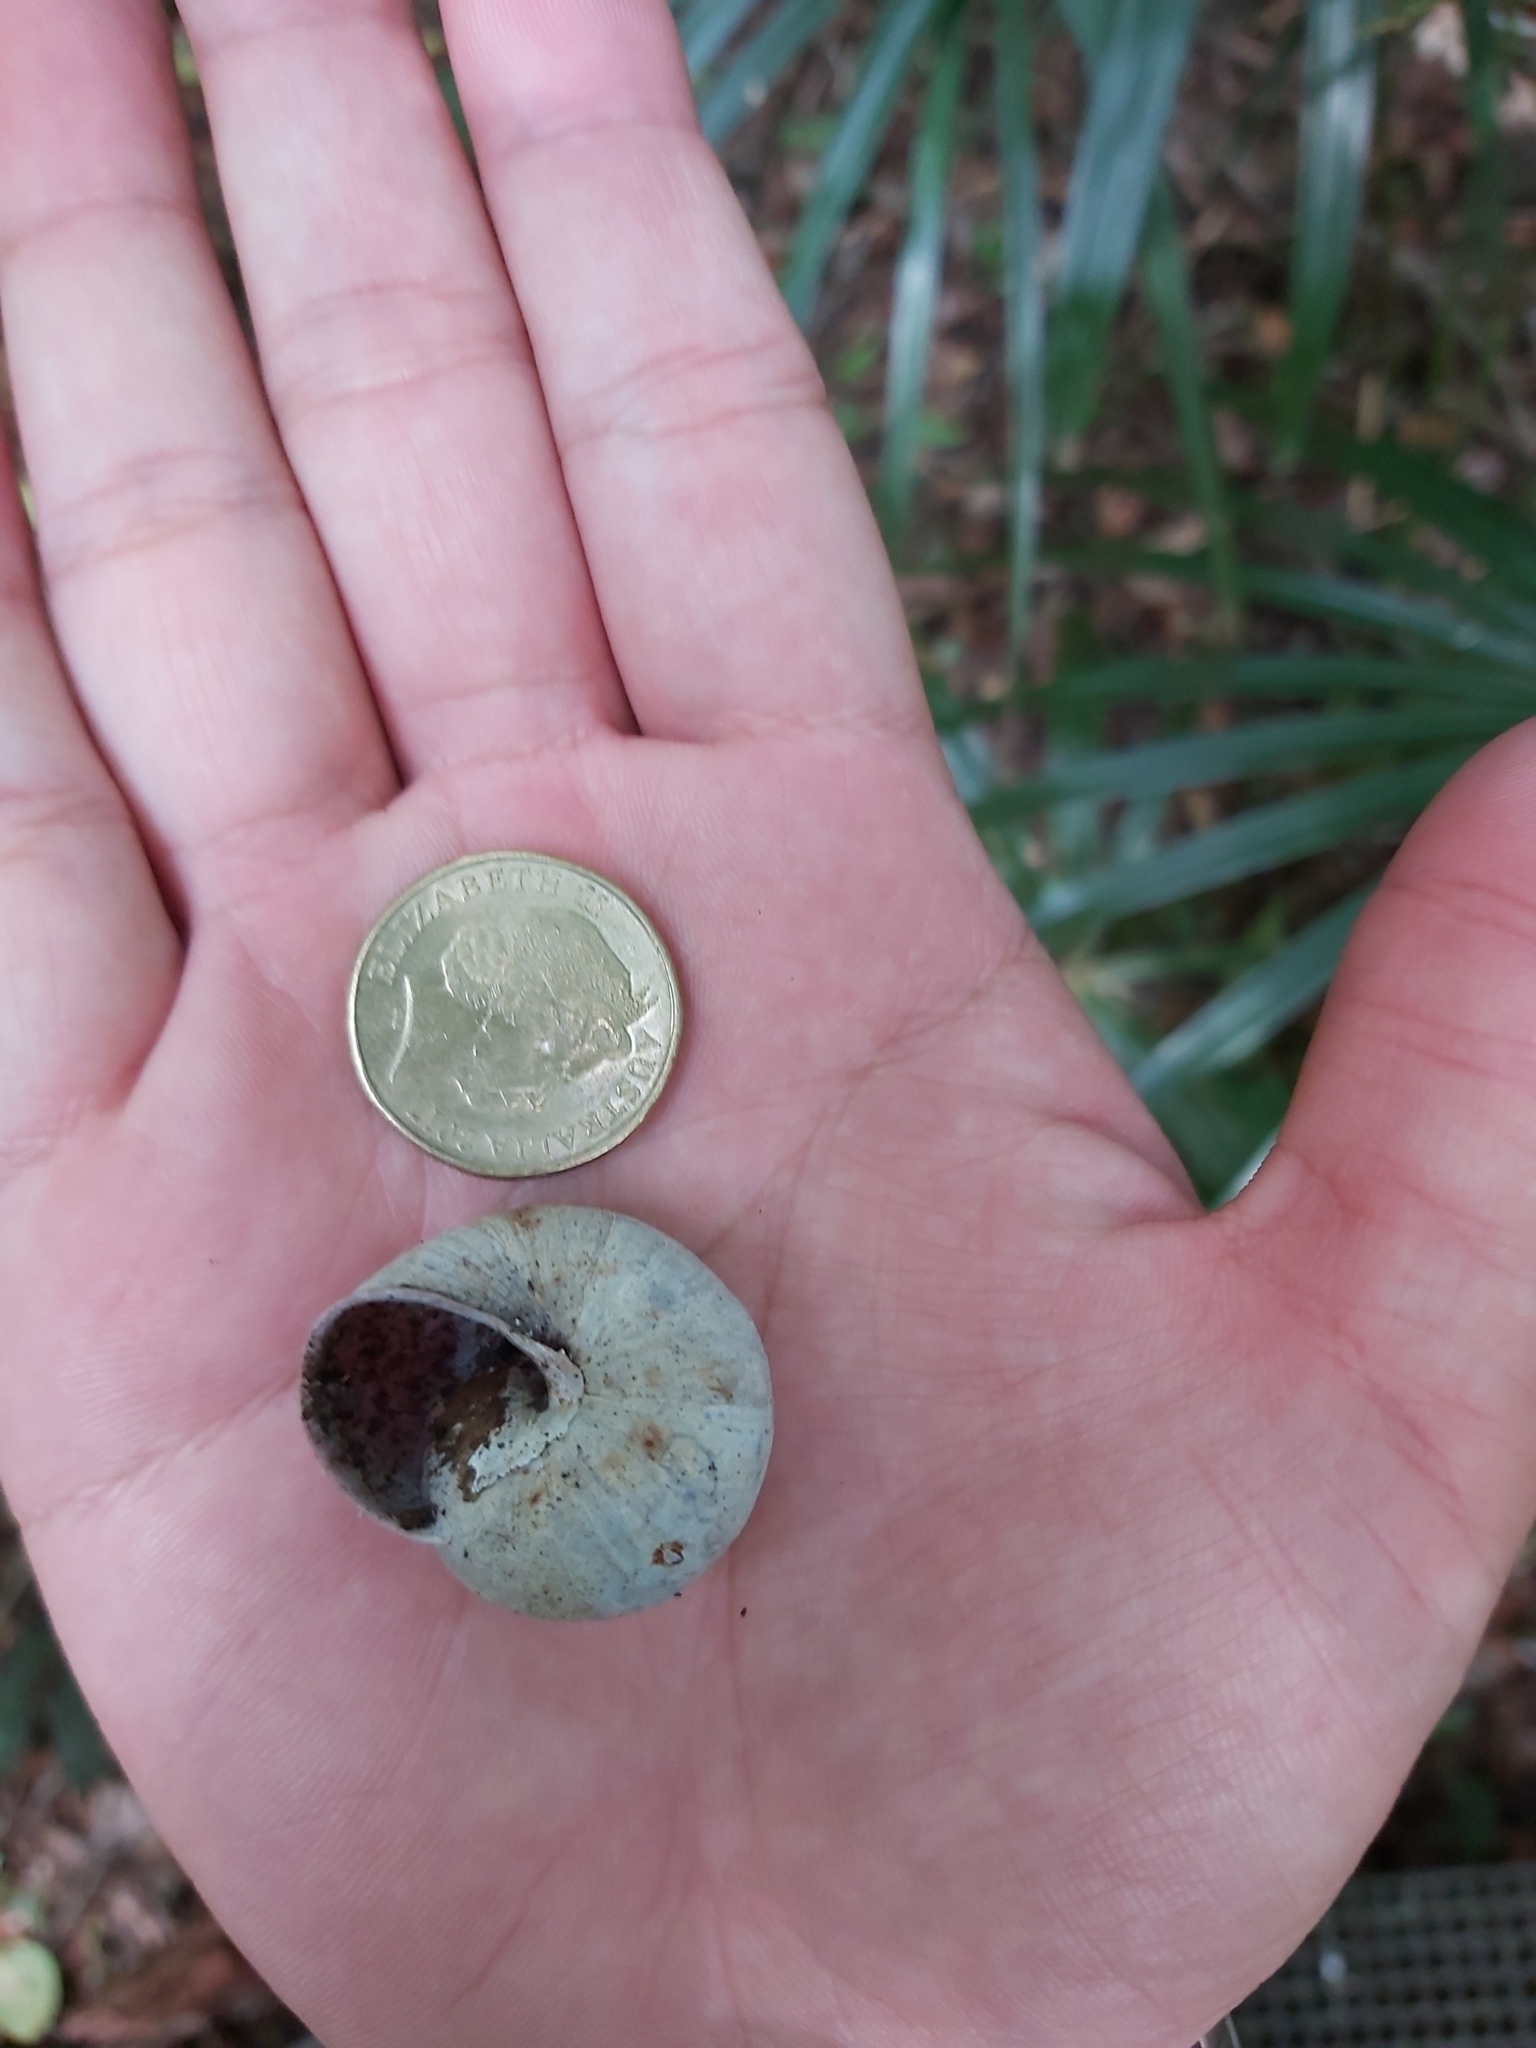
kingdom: Animalia
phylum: Mollusca
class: Gastropoda
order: Stylommatophora
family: Camaenidae
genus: Sauroconcha
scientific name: Sauroconcha gulosa
